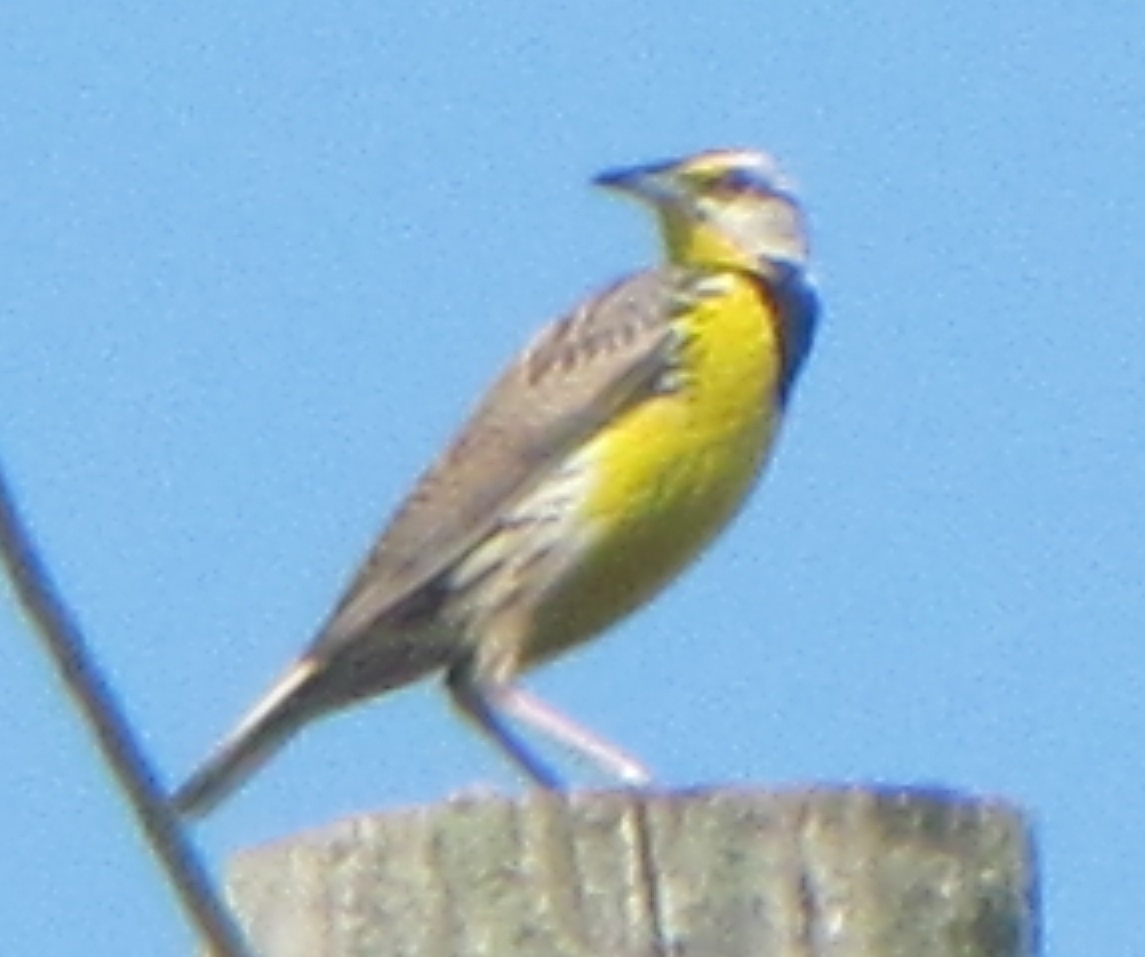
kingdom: Animalia
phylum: Chordata
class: Aves
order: Passeriformes
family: Icteridae
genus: Sturnella
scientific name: Sturnella magna
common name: Eastern meadowlark
